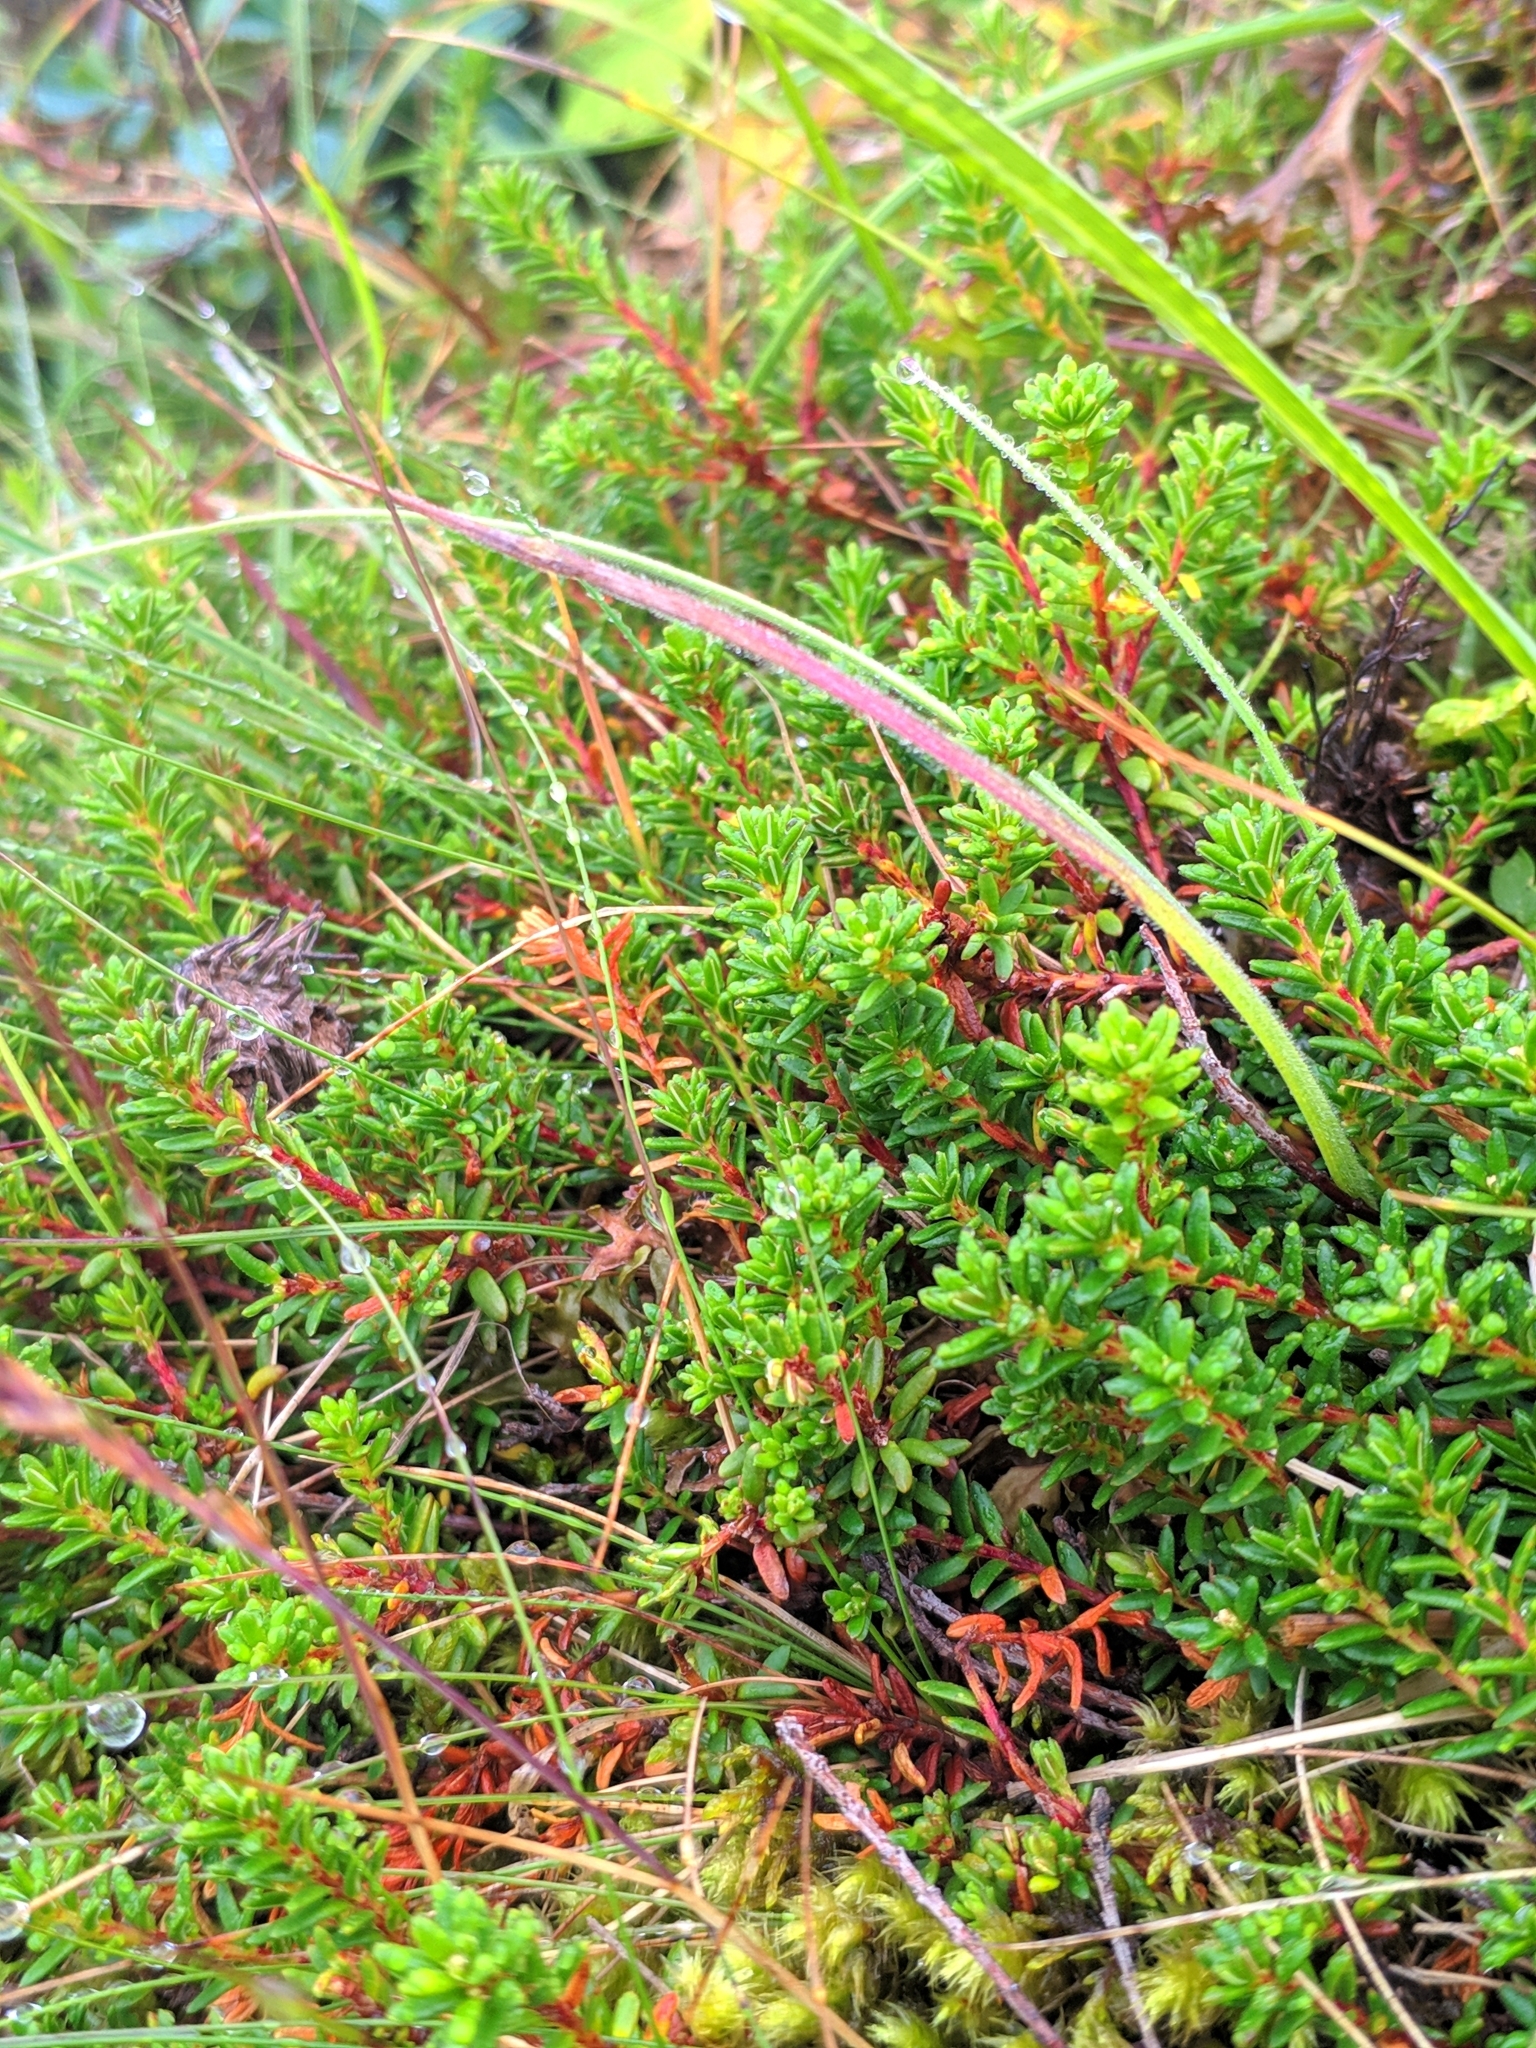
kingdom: Plantae
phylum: Tracheophyta
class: Magnoliopsida
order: Ericales
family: Ericaceae
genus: Empetrum
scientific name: Empetrum nigrum
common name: Black crowberry
